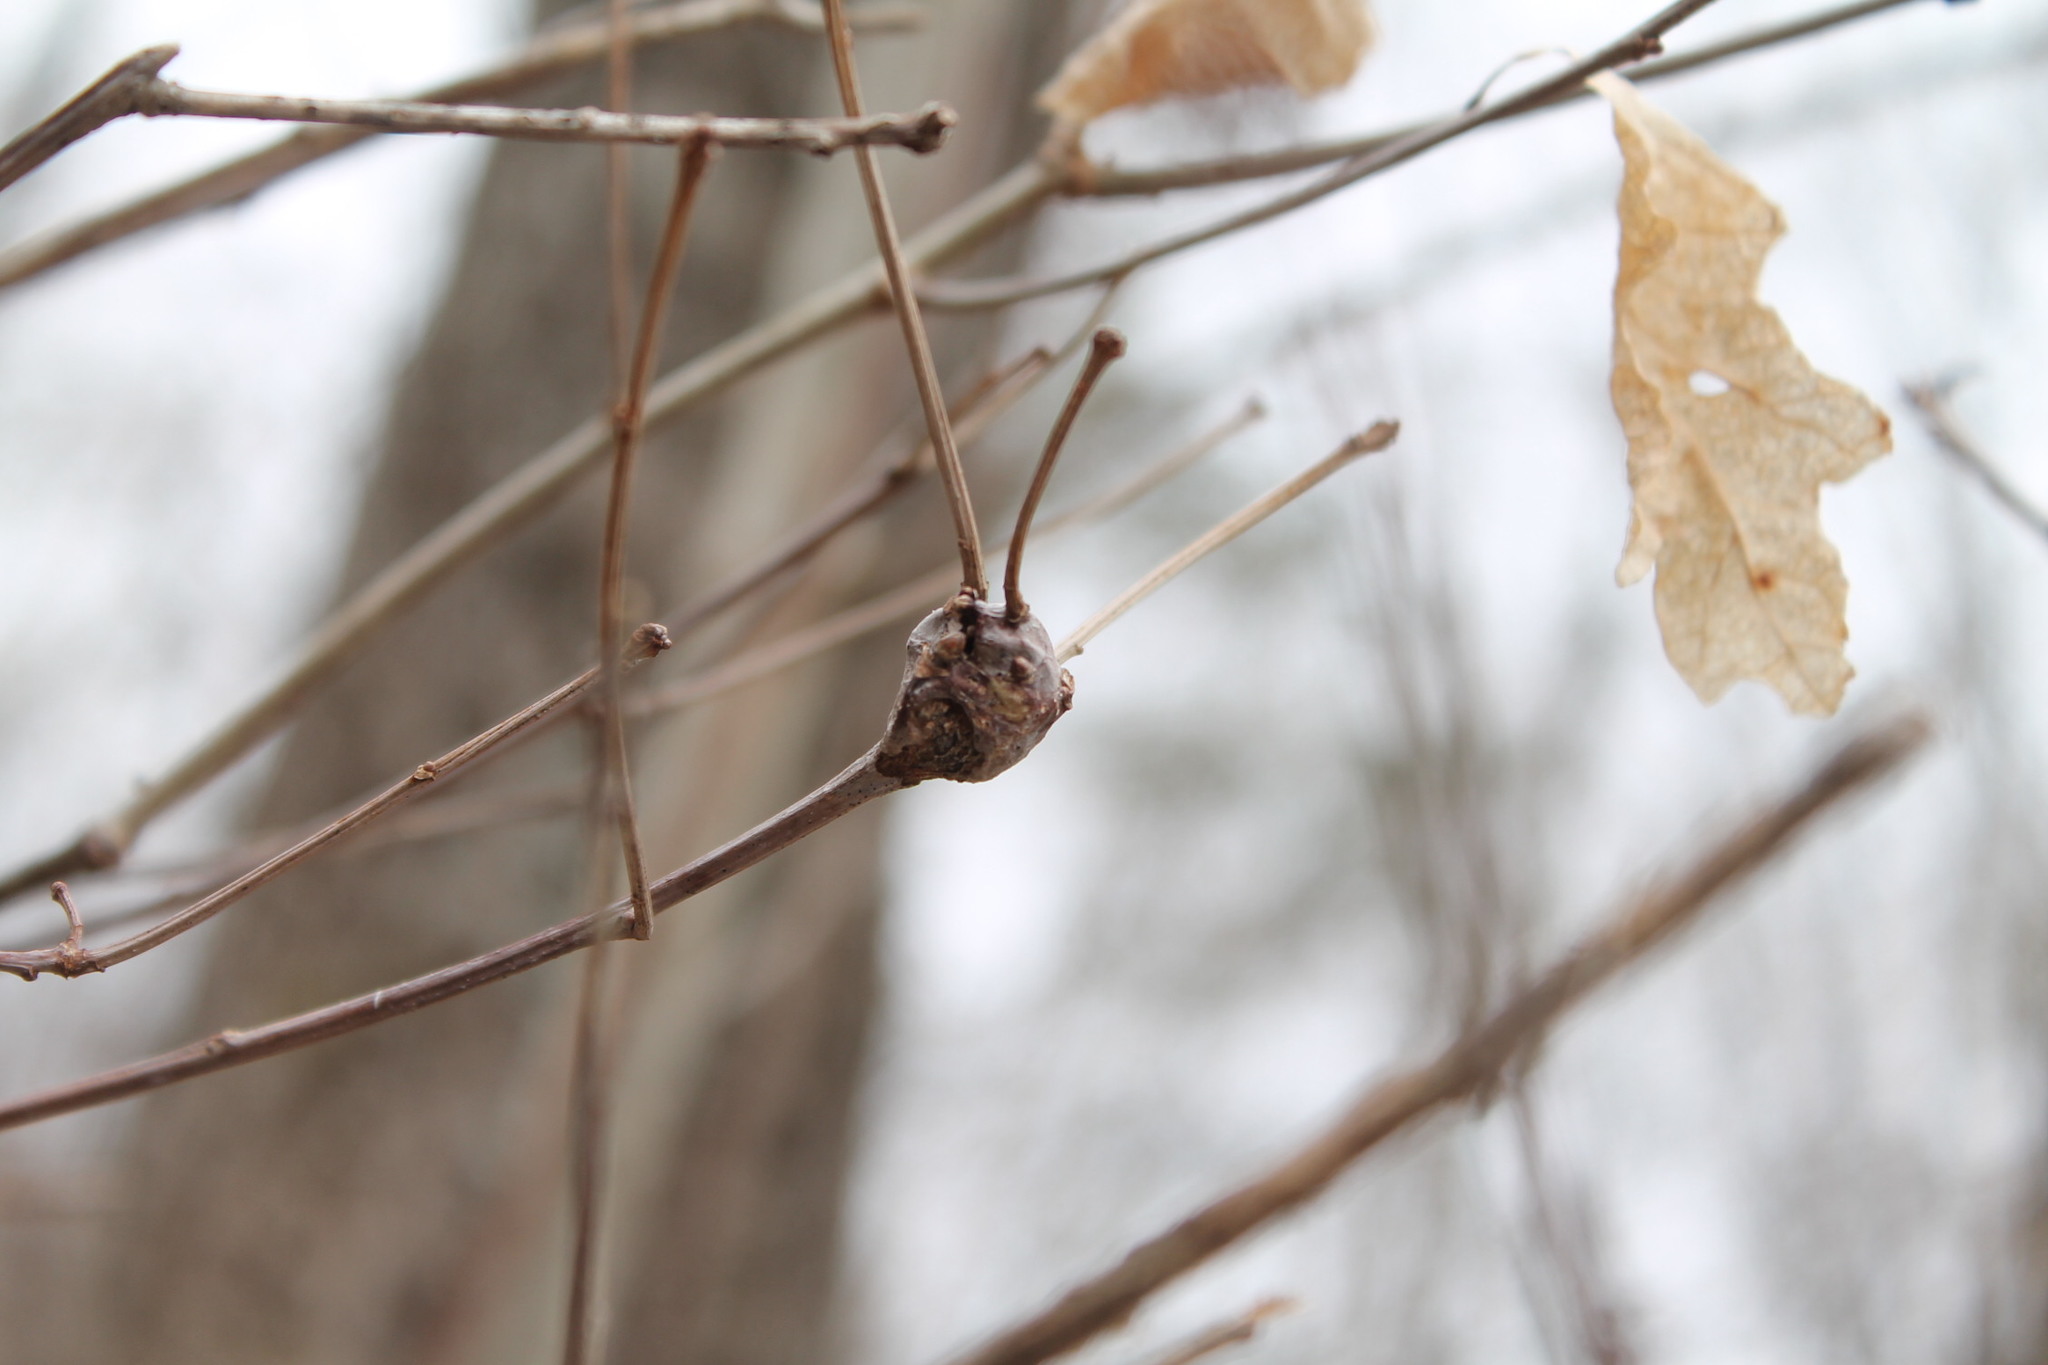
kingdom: Animalia
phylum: Arthropoda
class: Insecta
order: Hymenoptera
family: Cynipidae
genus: Callirhytis
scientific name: Callirhytis clavula
